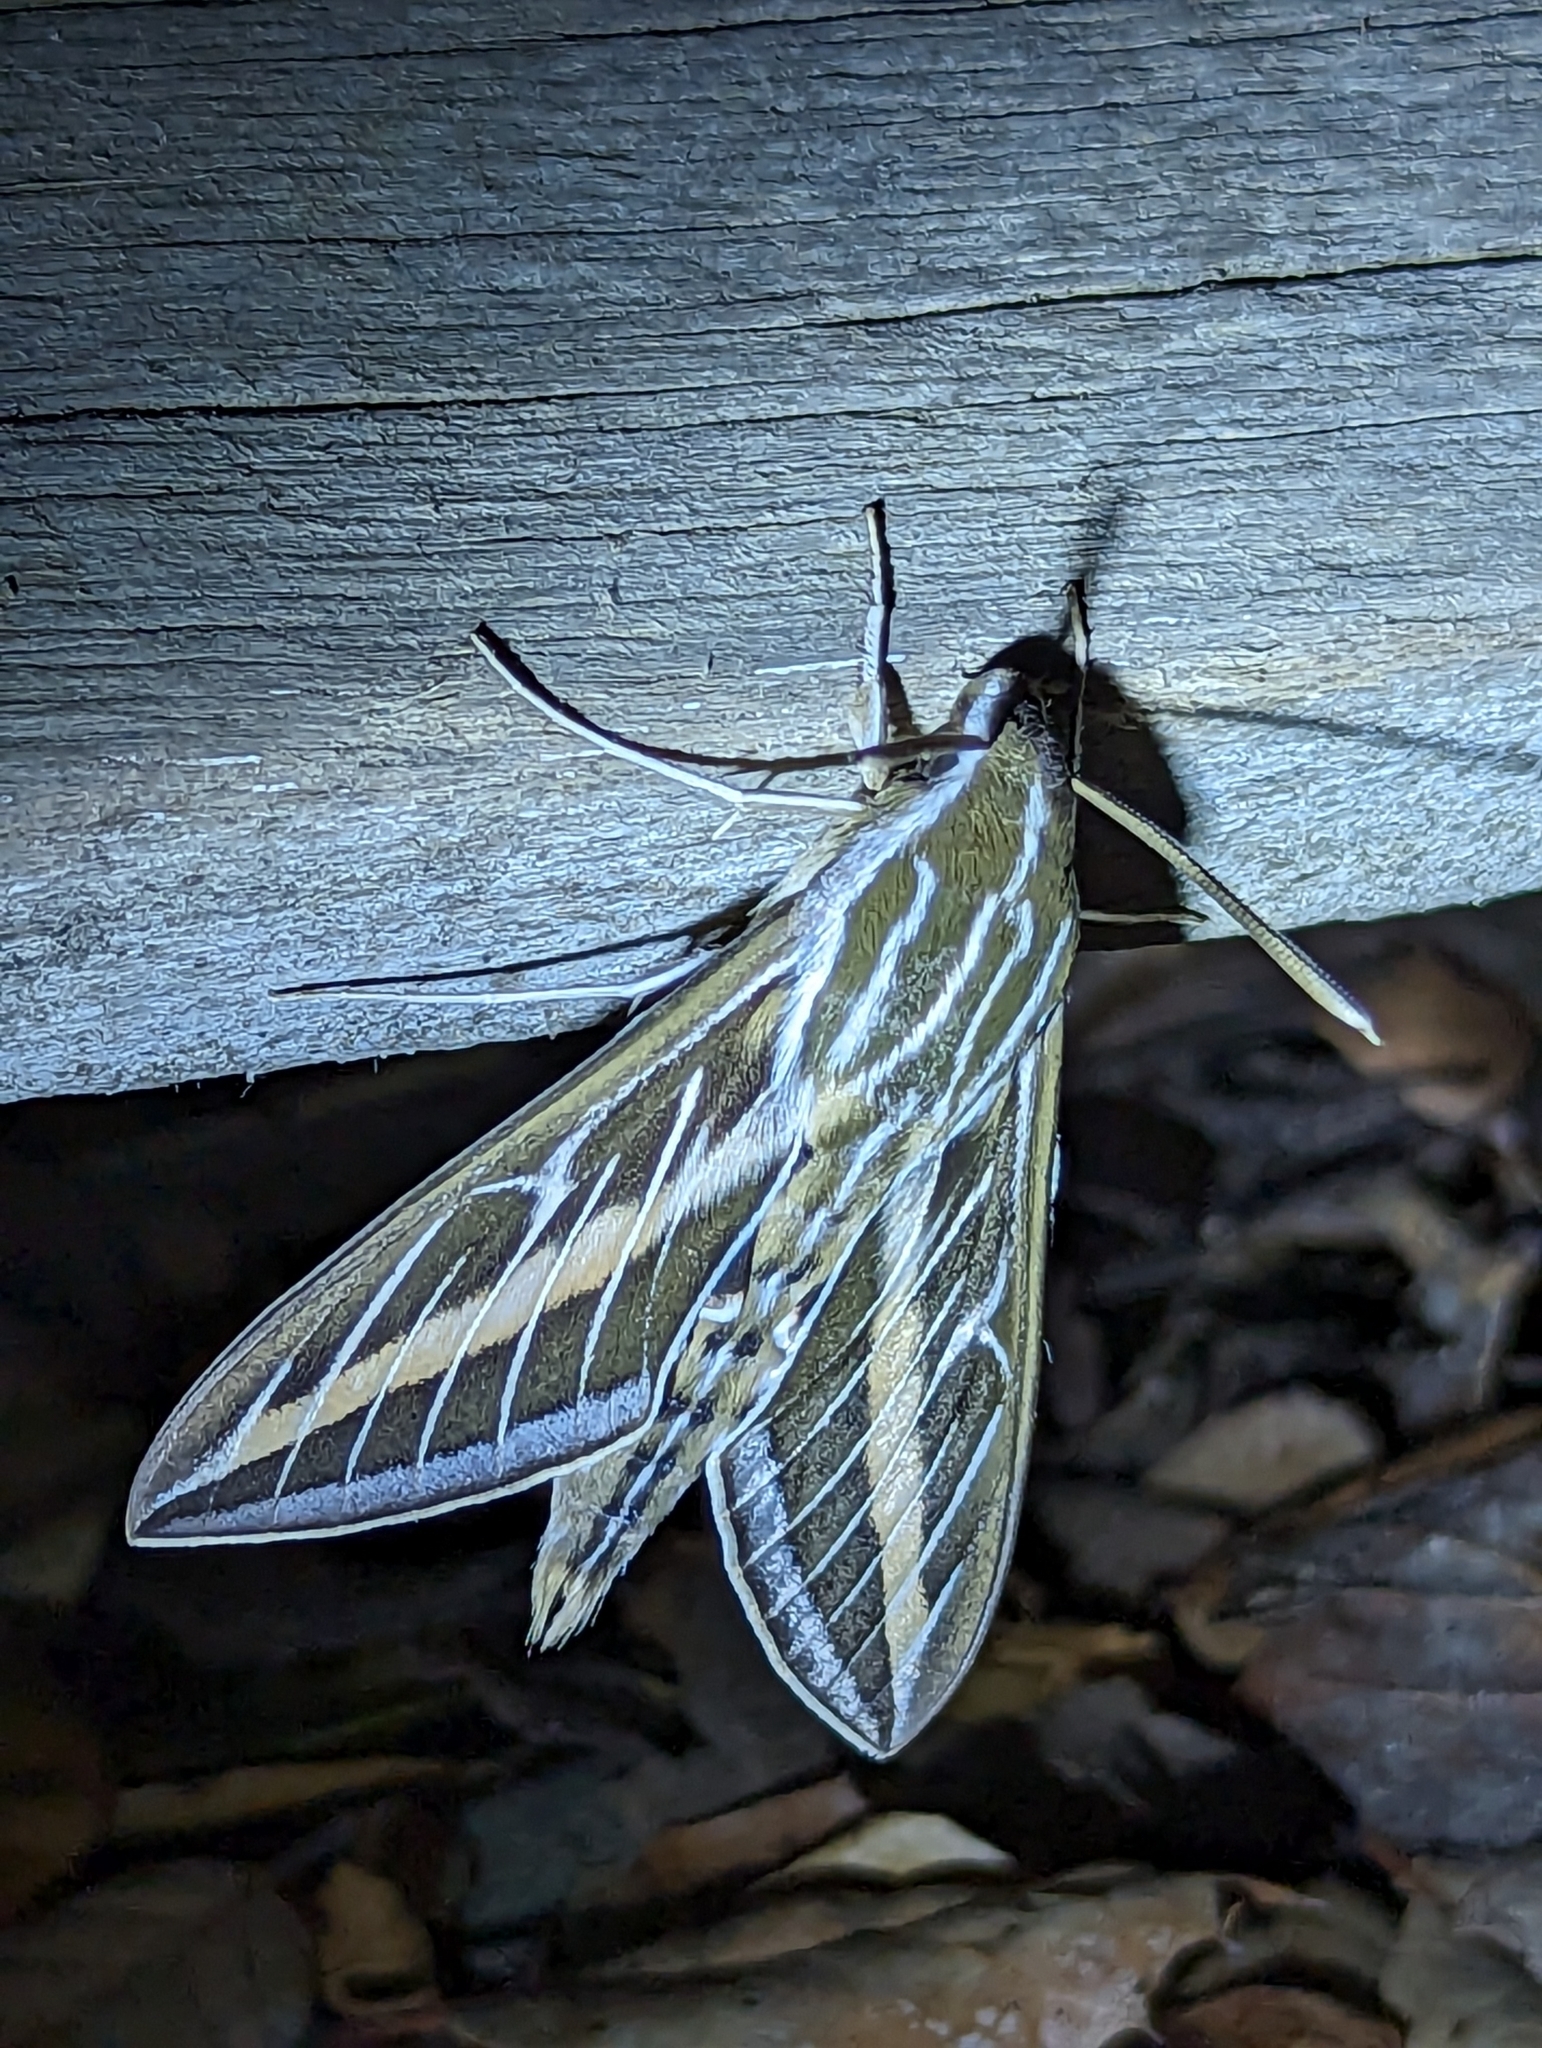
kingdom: Animalia
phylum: Arthropoda
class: Insecta
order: Lepidoptera
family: Sphingidae
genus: Hyles
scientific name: Hyles lineata
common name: White-lined sphinx
